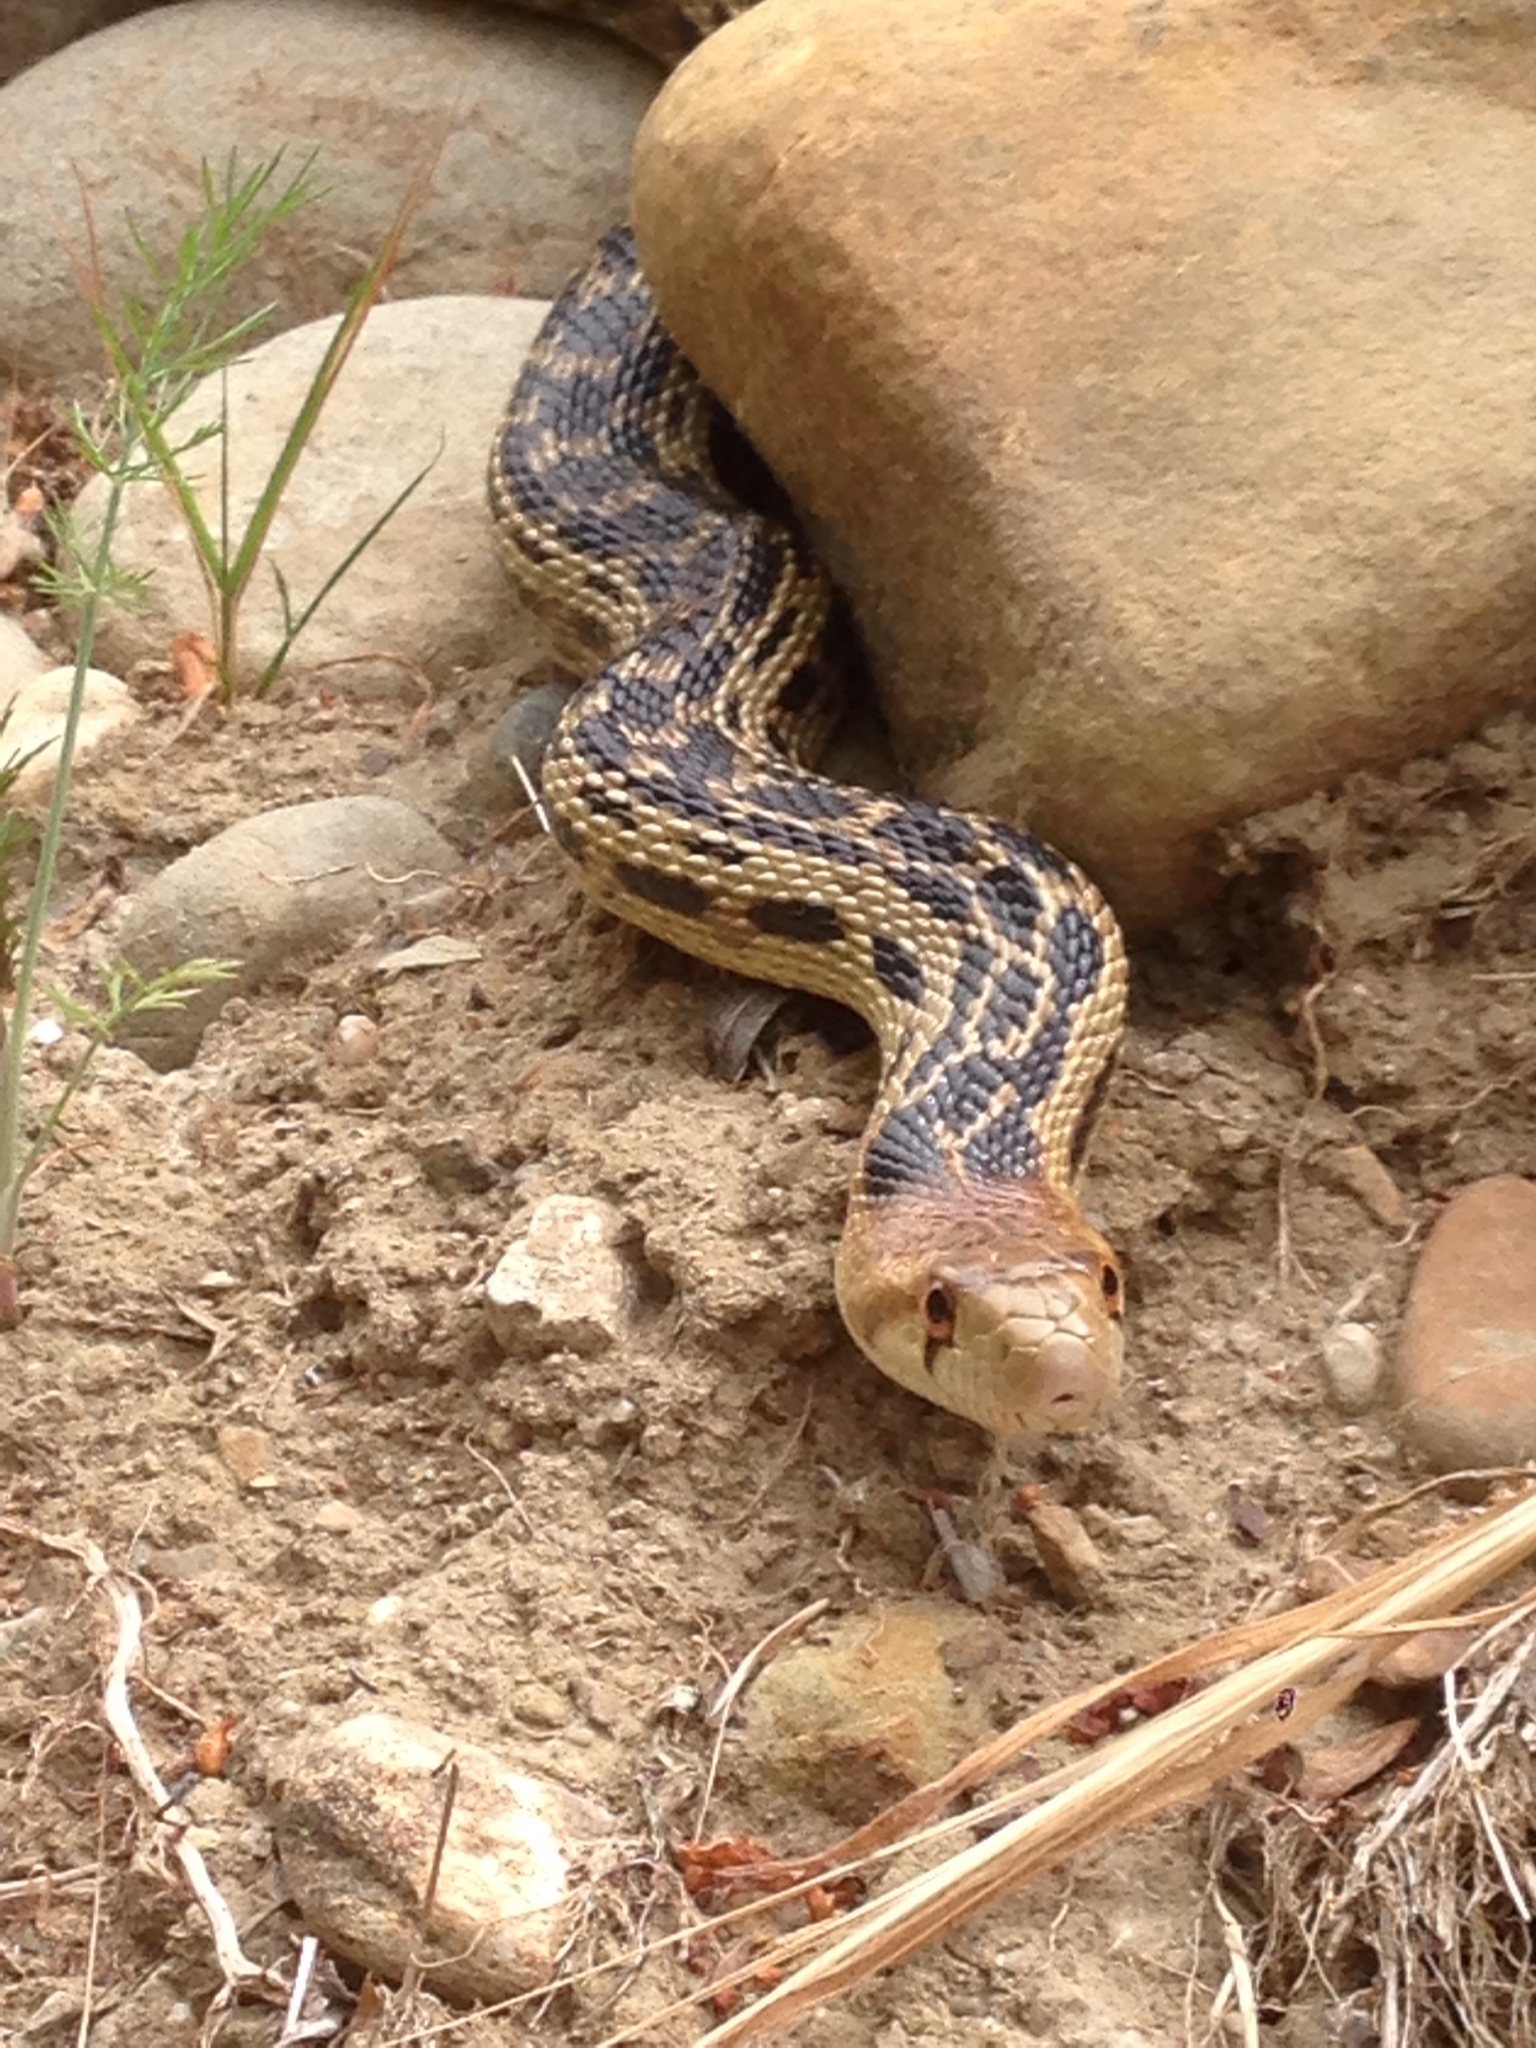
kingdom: Animalia
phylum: Chordata
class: Squamata
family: Colubridae
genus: Pituophis
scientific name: Pituophis catenifer
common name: Gopher snake
